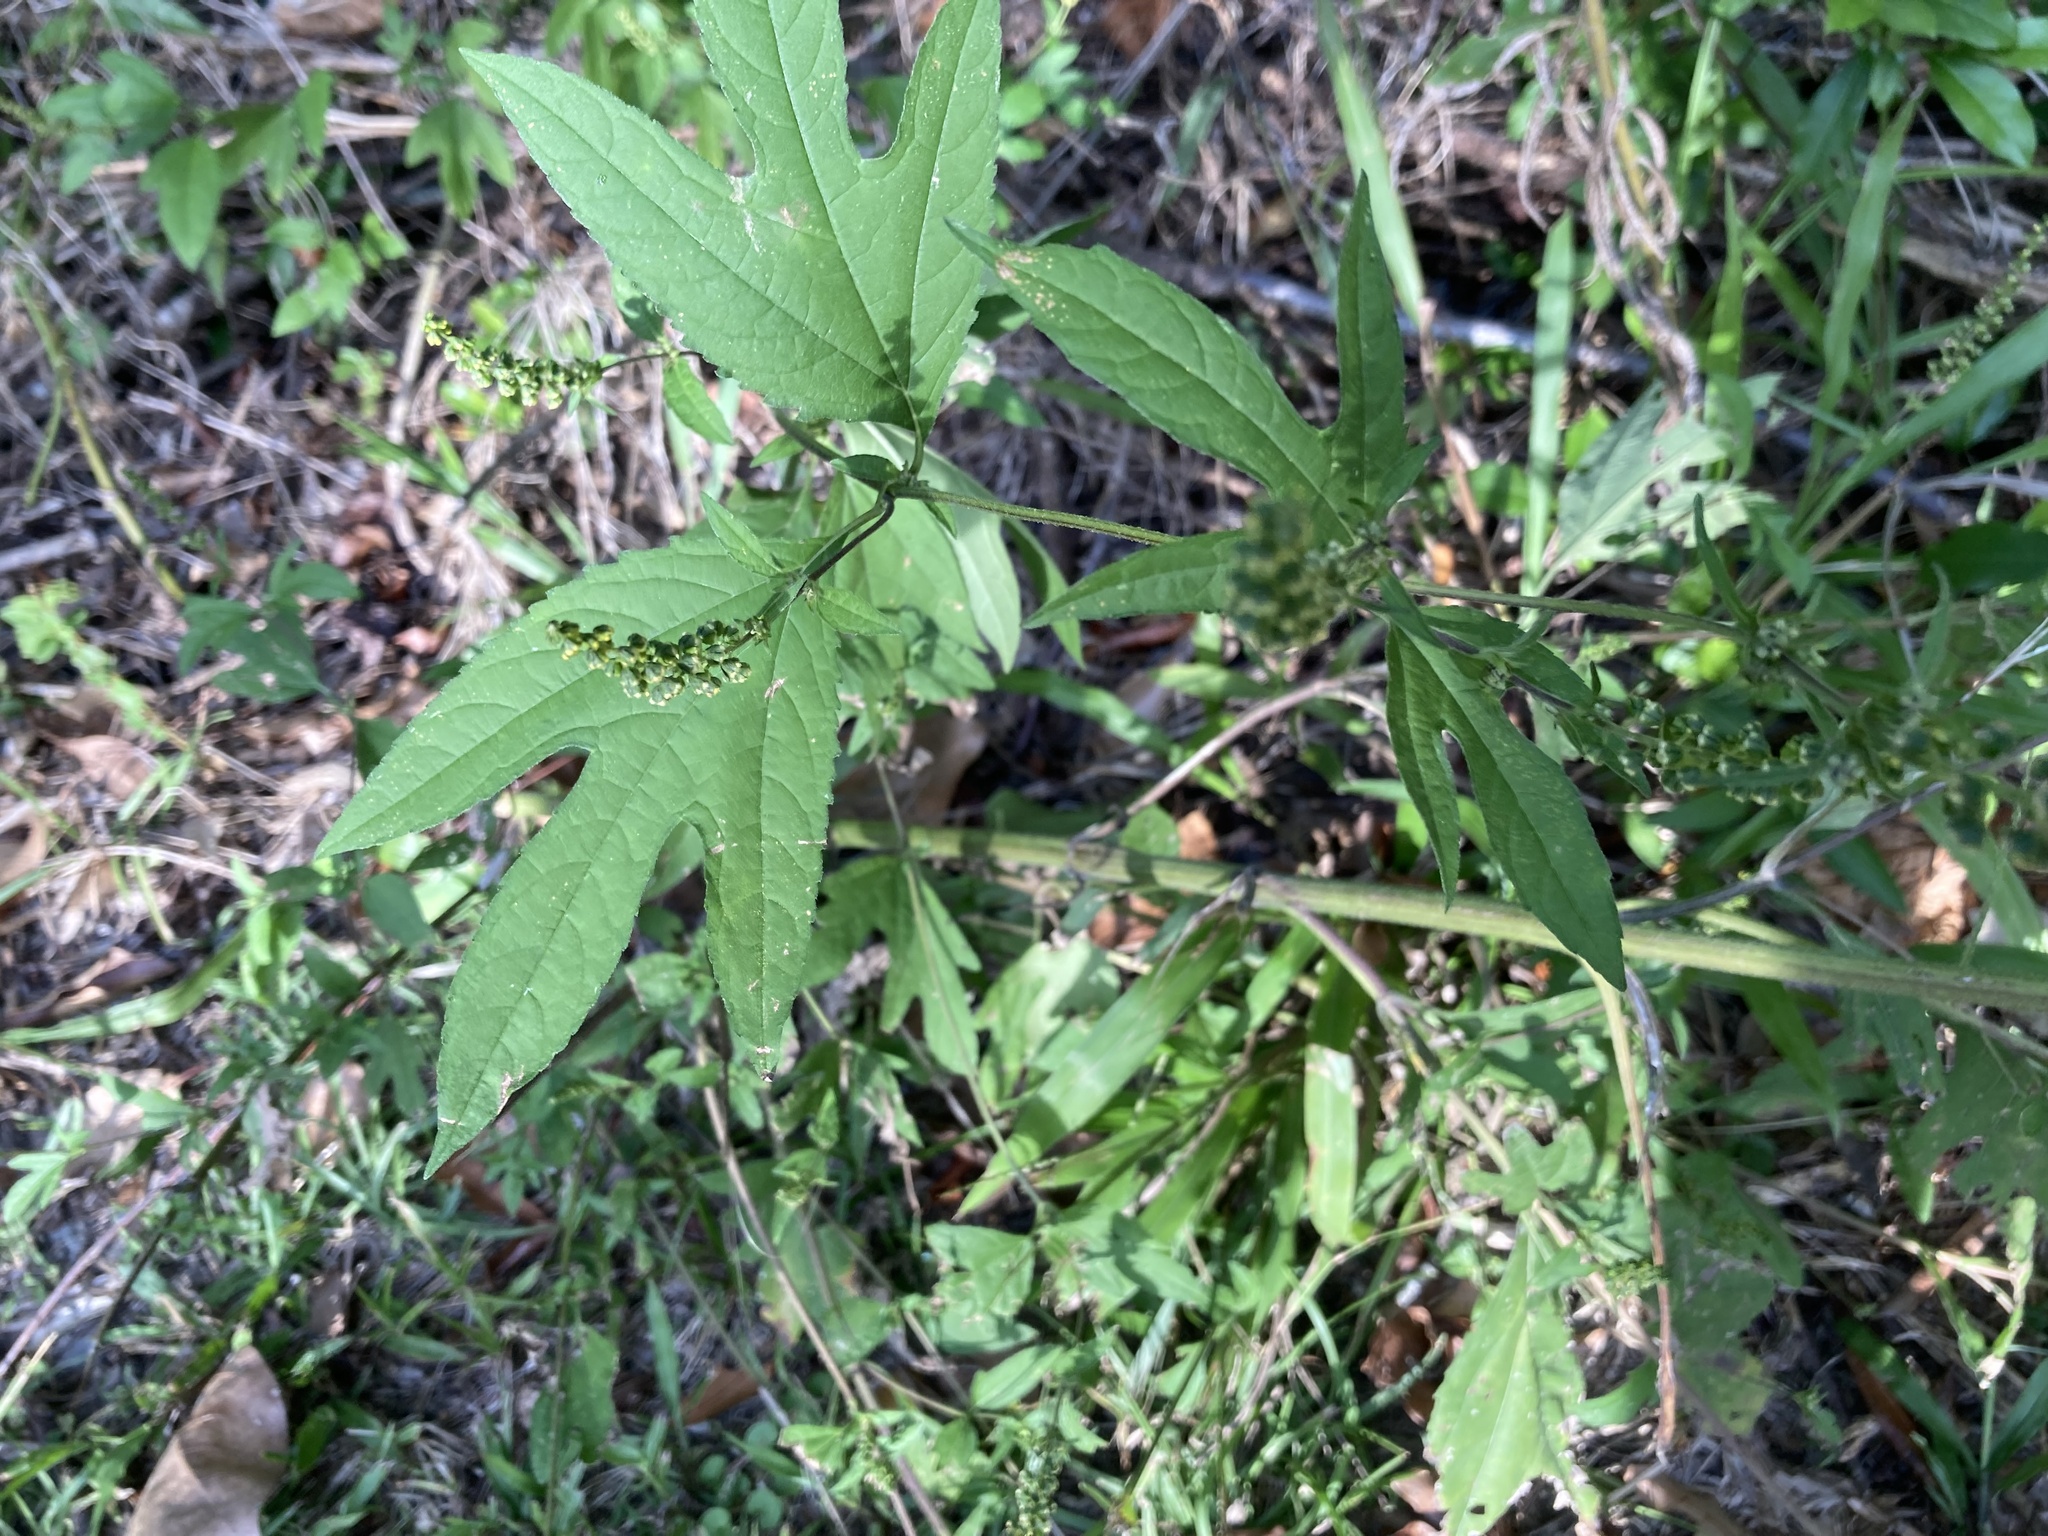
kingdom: Plantae
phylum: Tracheophyta
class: Magnoliopsida
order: Asterales
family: Asteraceae
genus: Ambrosia
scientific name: Ambrosia trifida
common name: Giant ragweed
